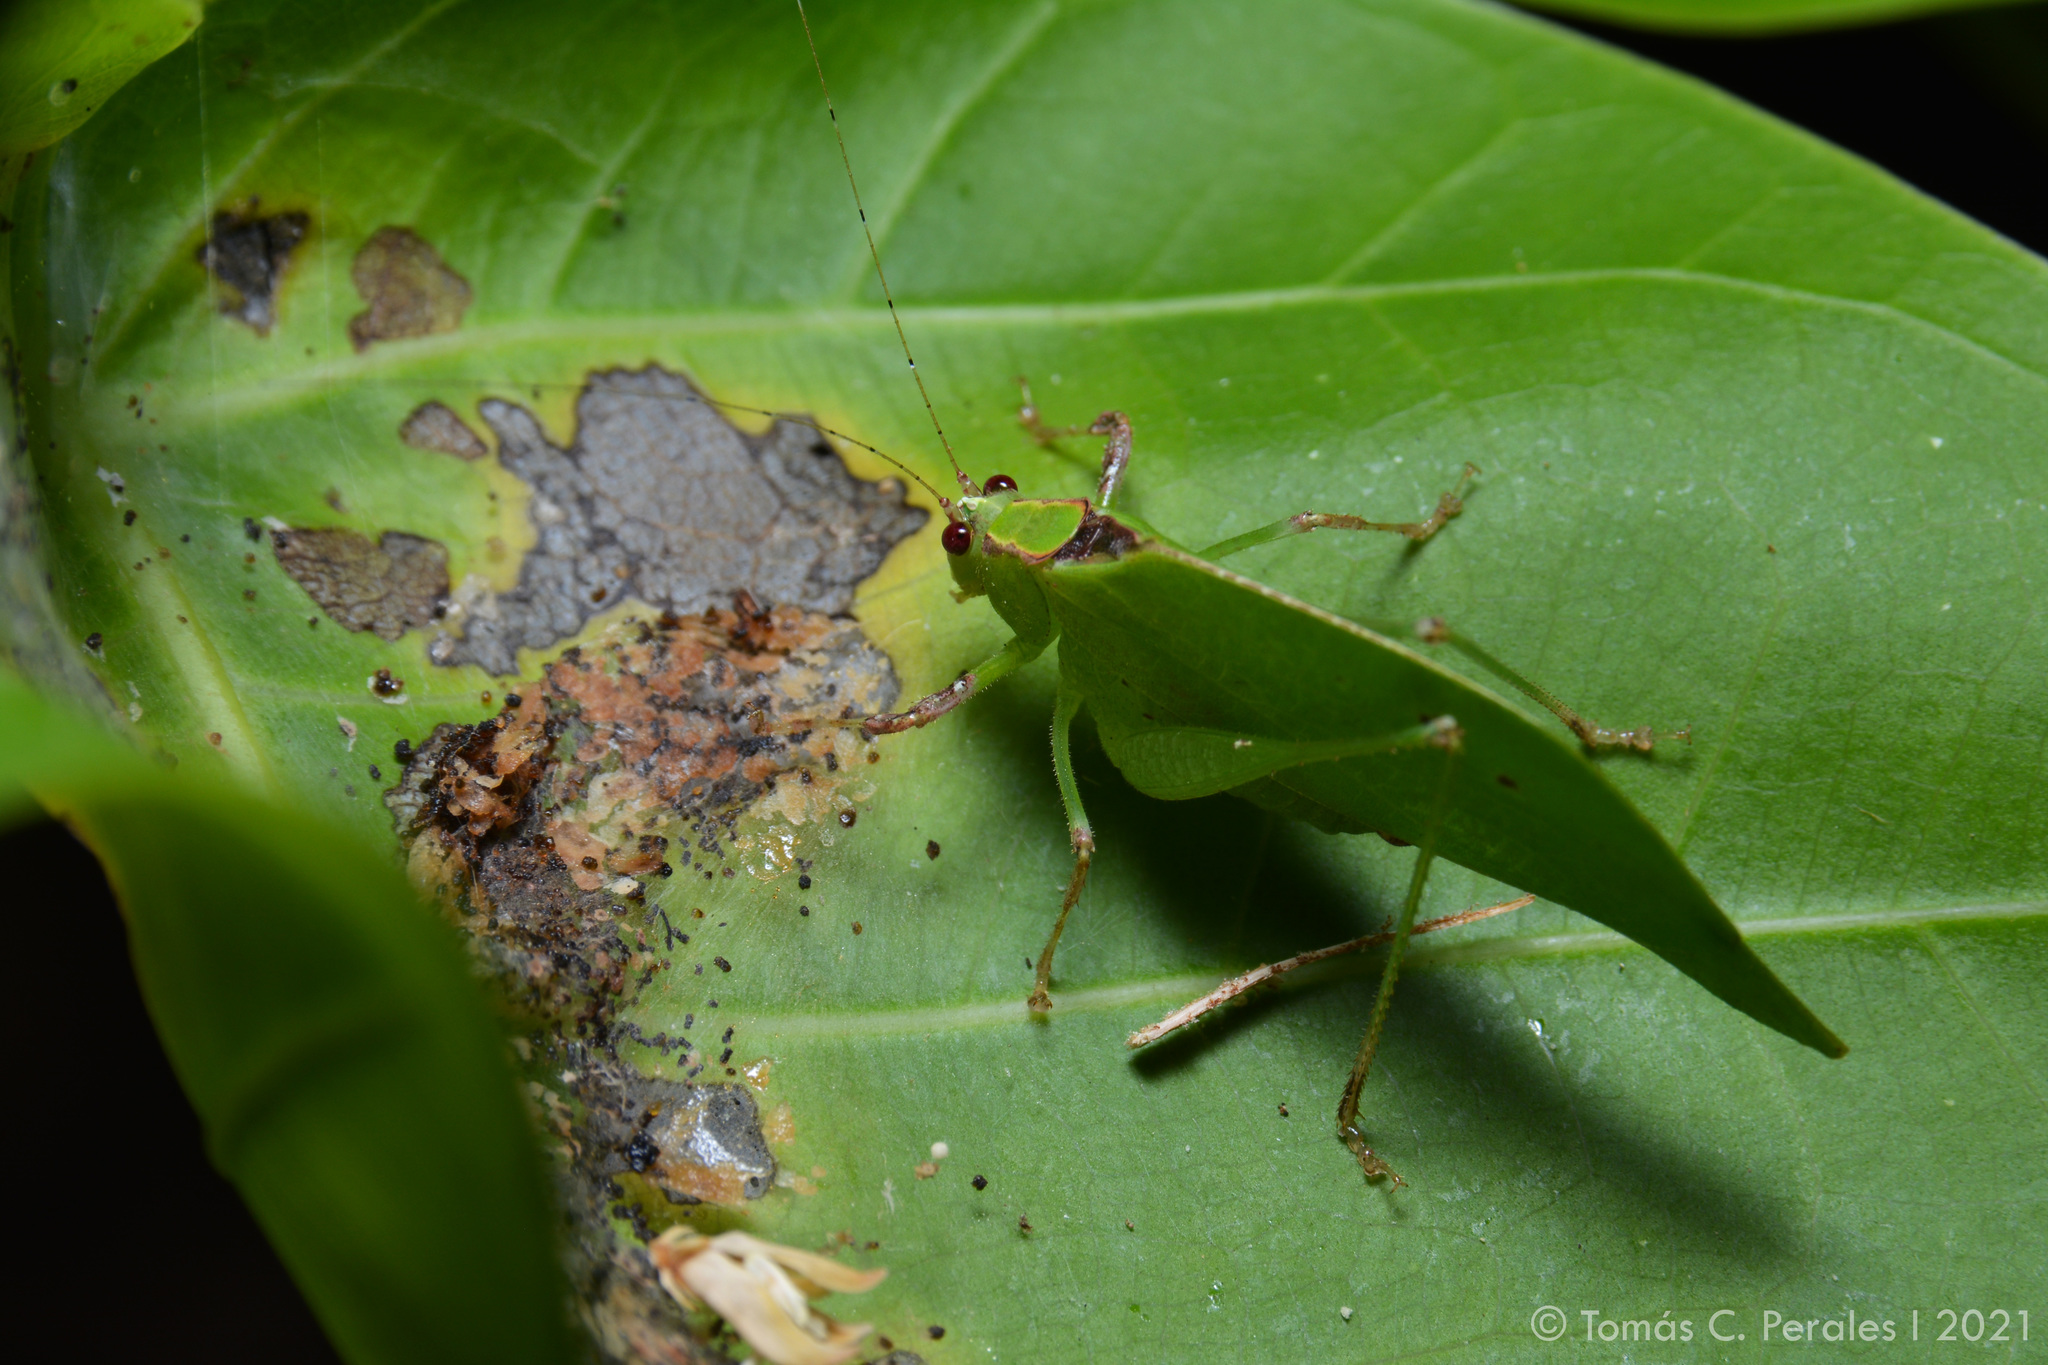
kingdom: Animalia
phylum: Arthropoda
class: Insecta
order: Orthoptera
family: Tettigoniidae
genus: Topana
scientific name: Topana aguilari
